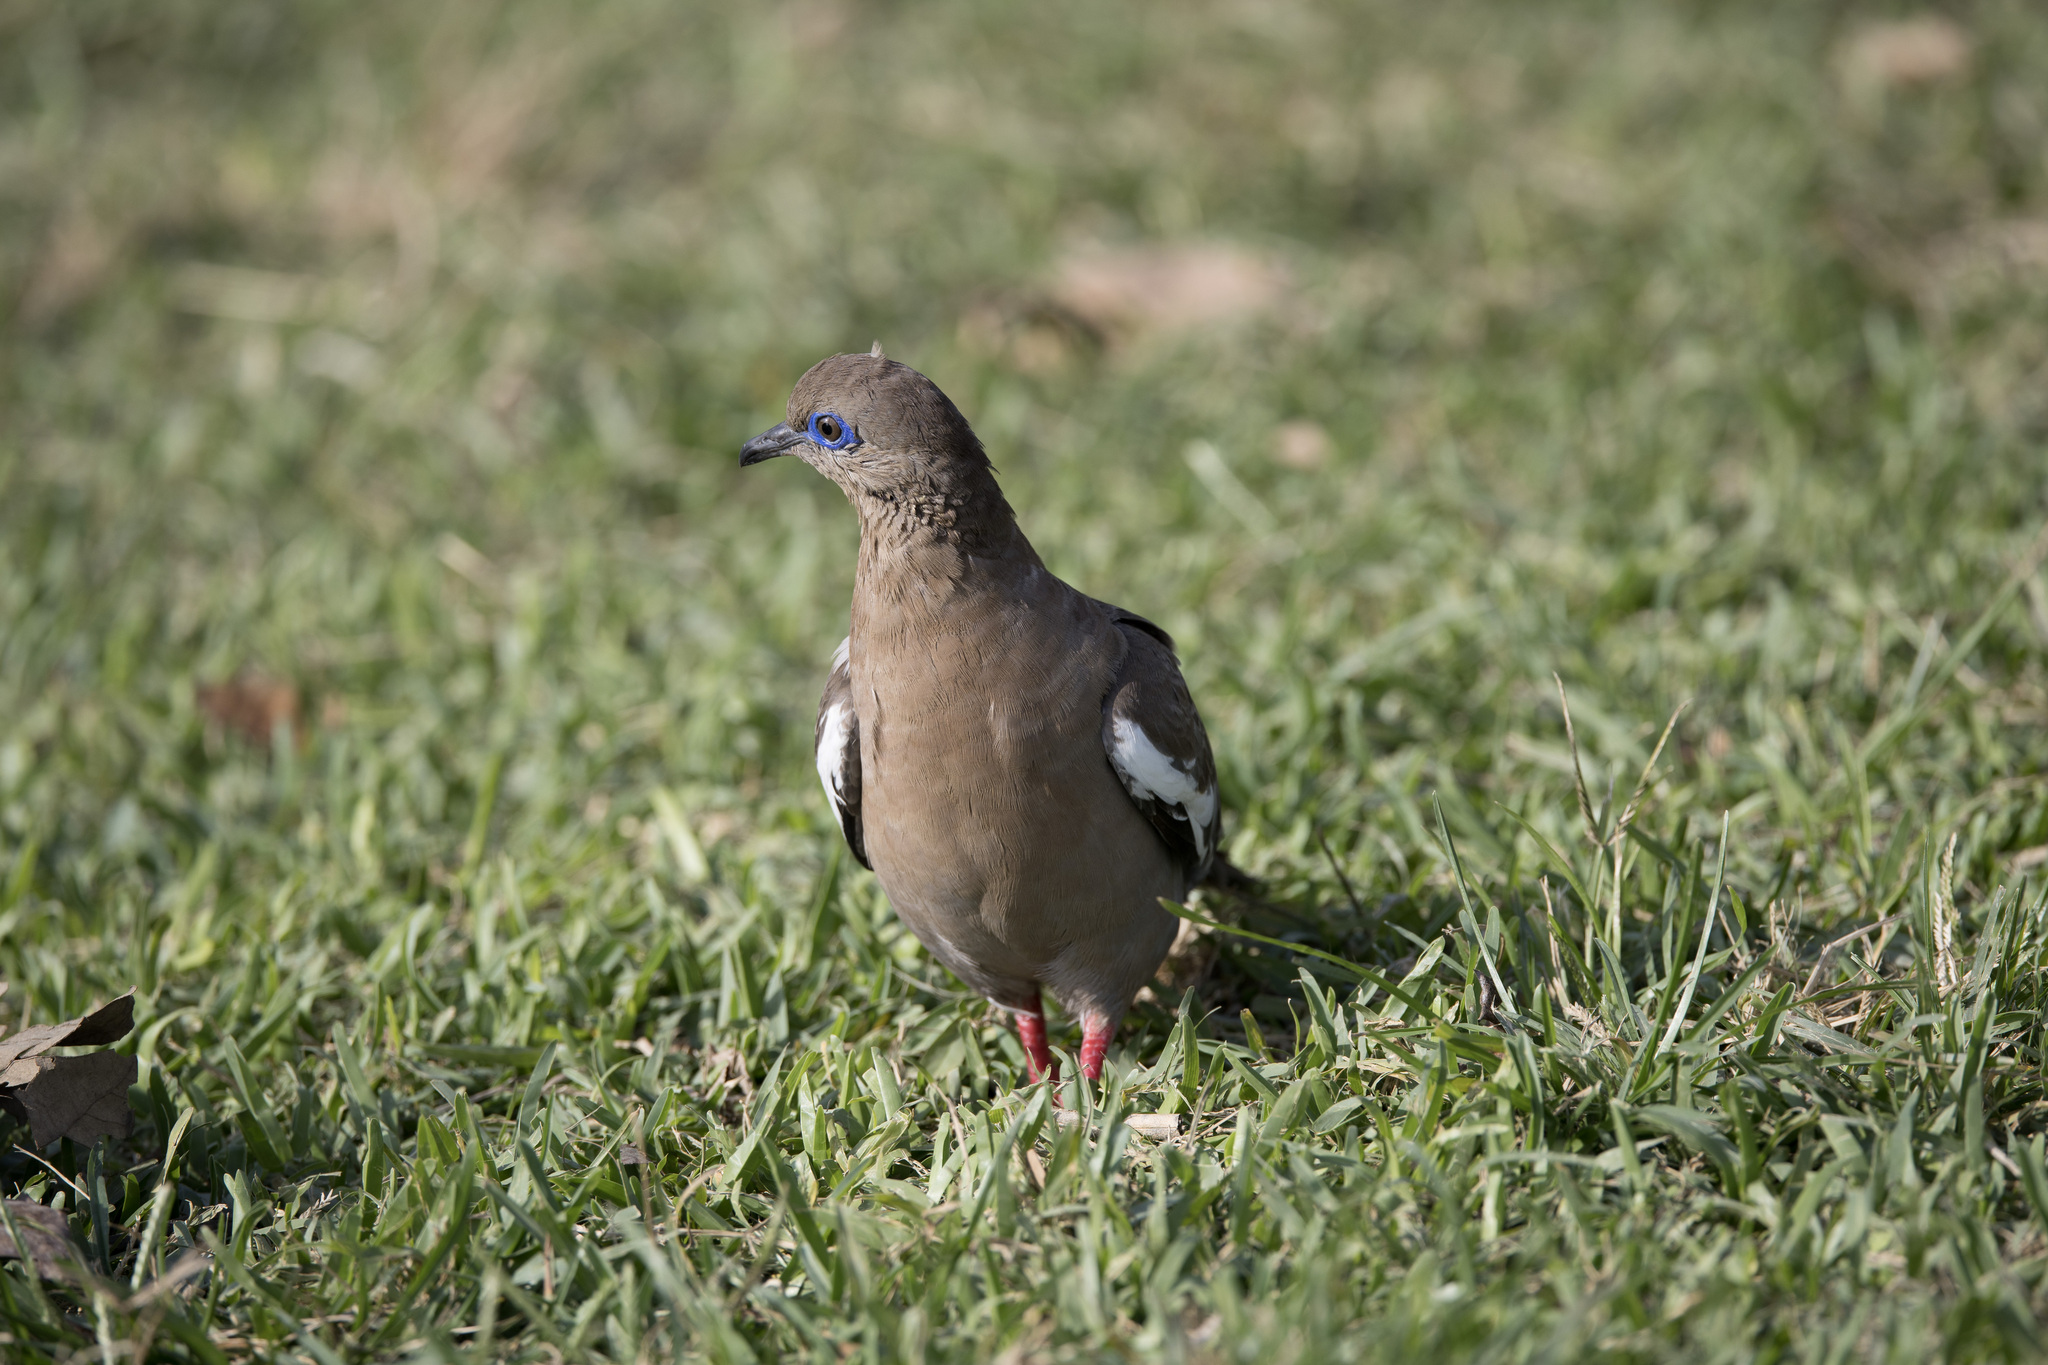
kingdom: Animalia
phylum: Chordata
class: Aves
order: Columbiformes
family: Columbidae
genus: Zenaida
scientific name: Zenaida meloda
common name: West peruvian dove
